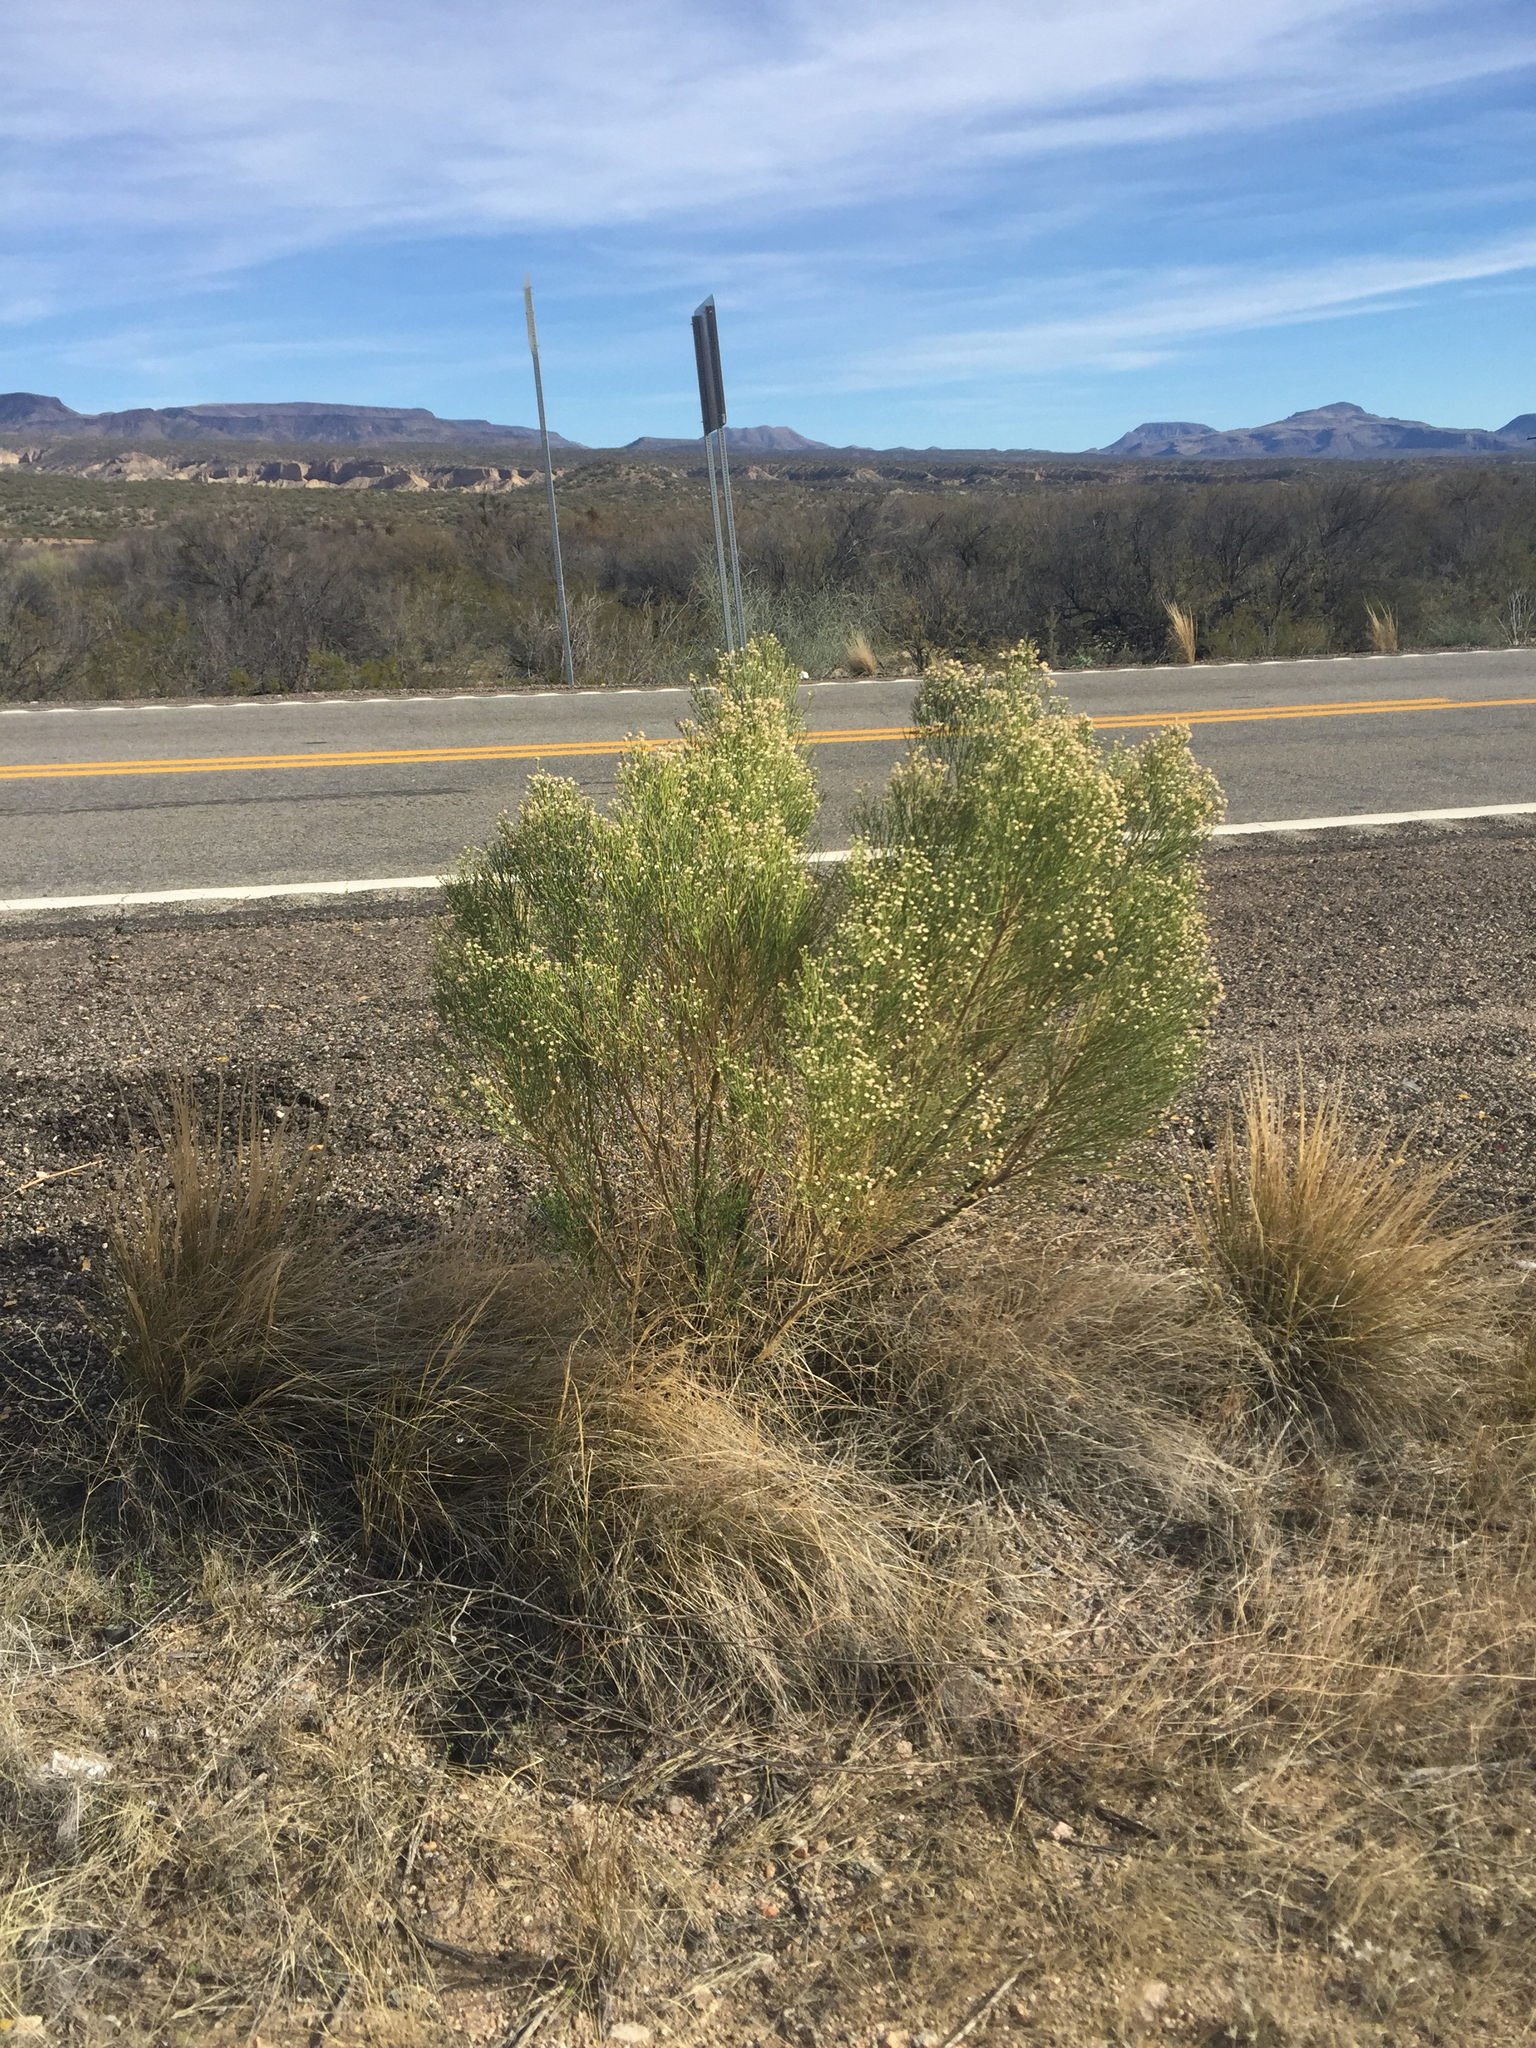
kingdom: Plantae
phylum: Tracheophyta
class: Magnoliopsida
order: Asterales
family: Asteraceae
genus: Baccharis
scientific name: Baccharis sarothroides
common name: Desert-broom
